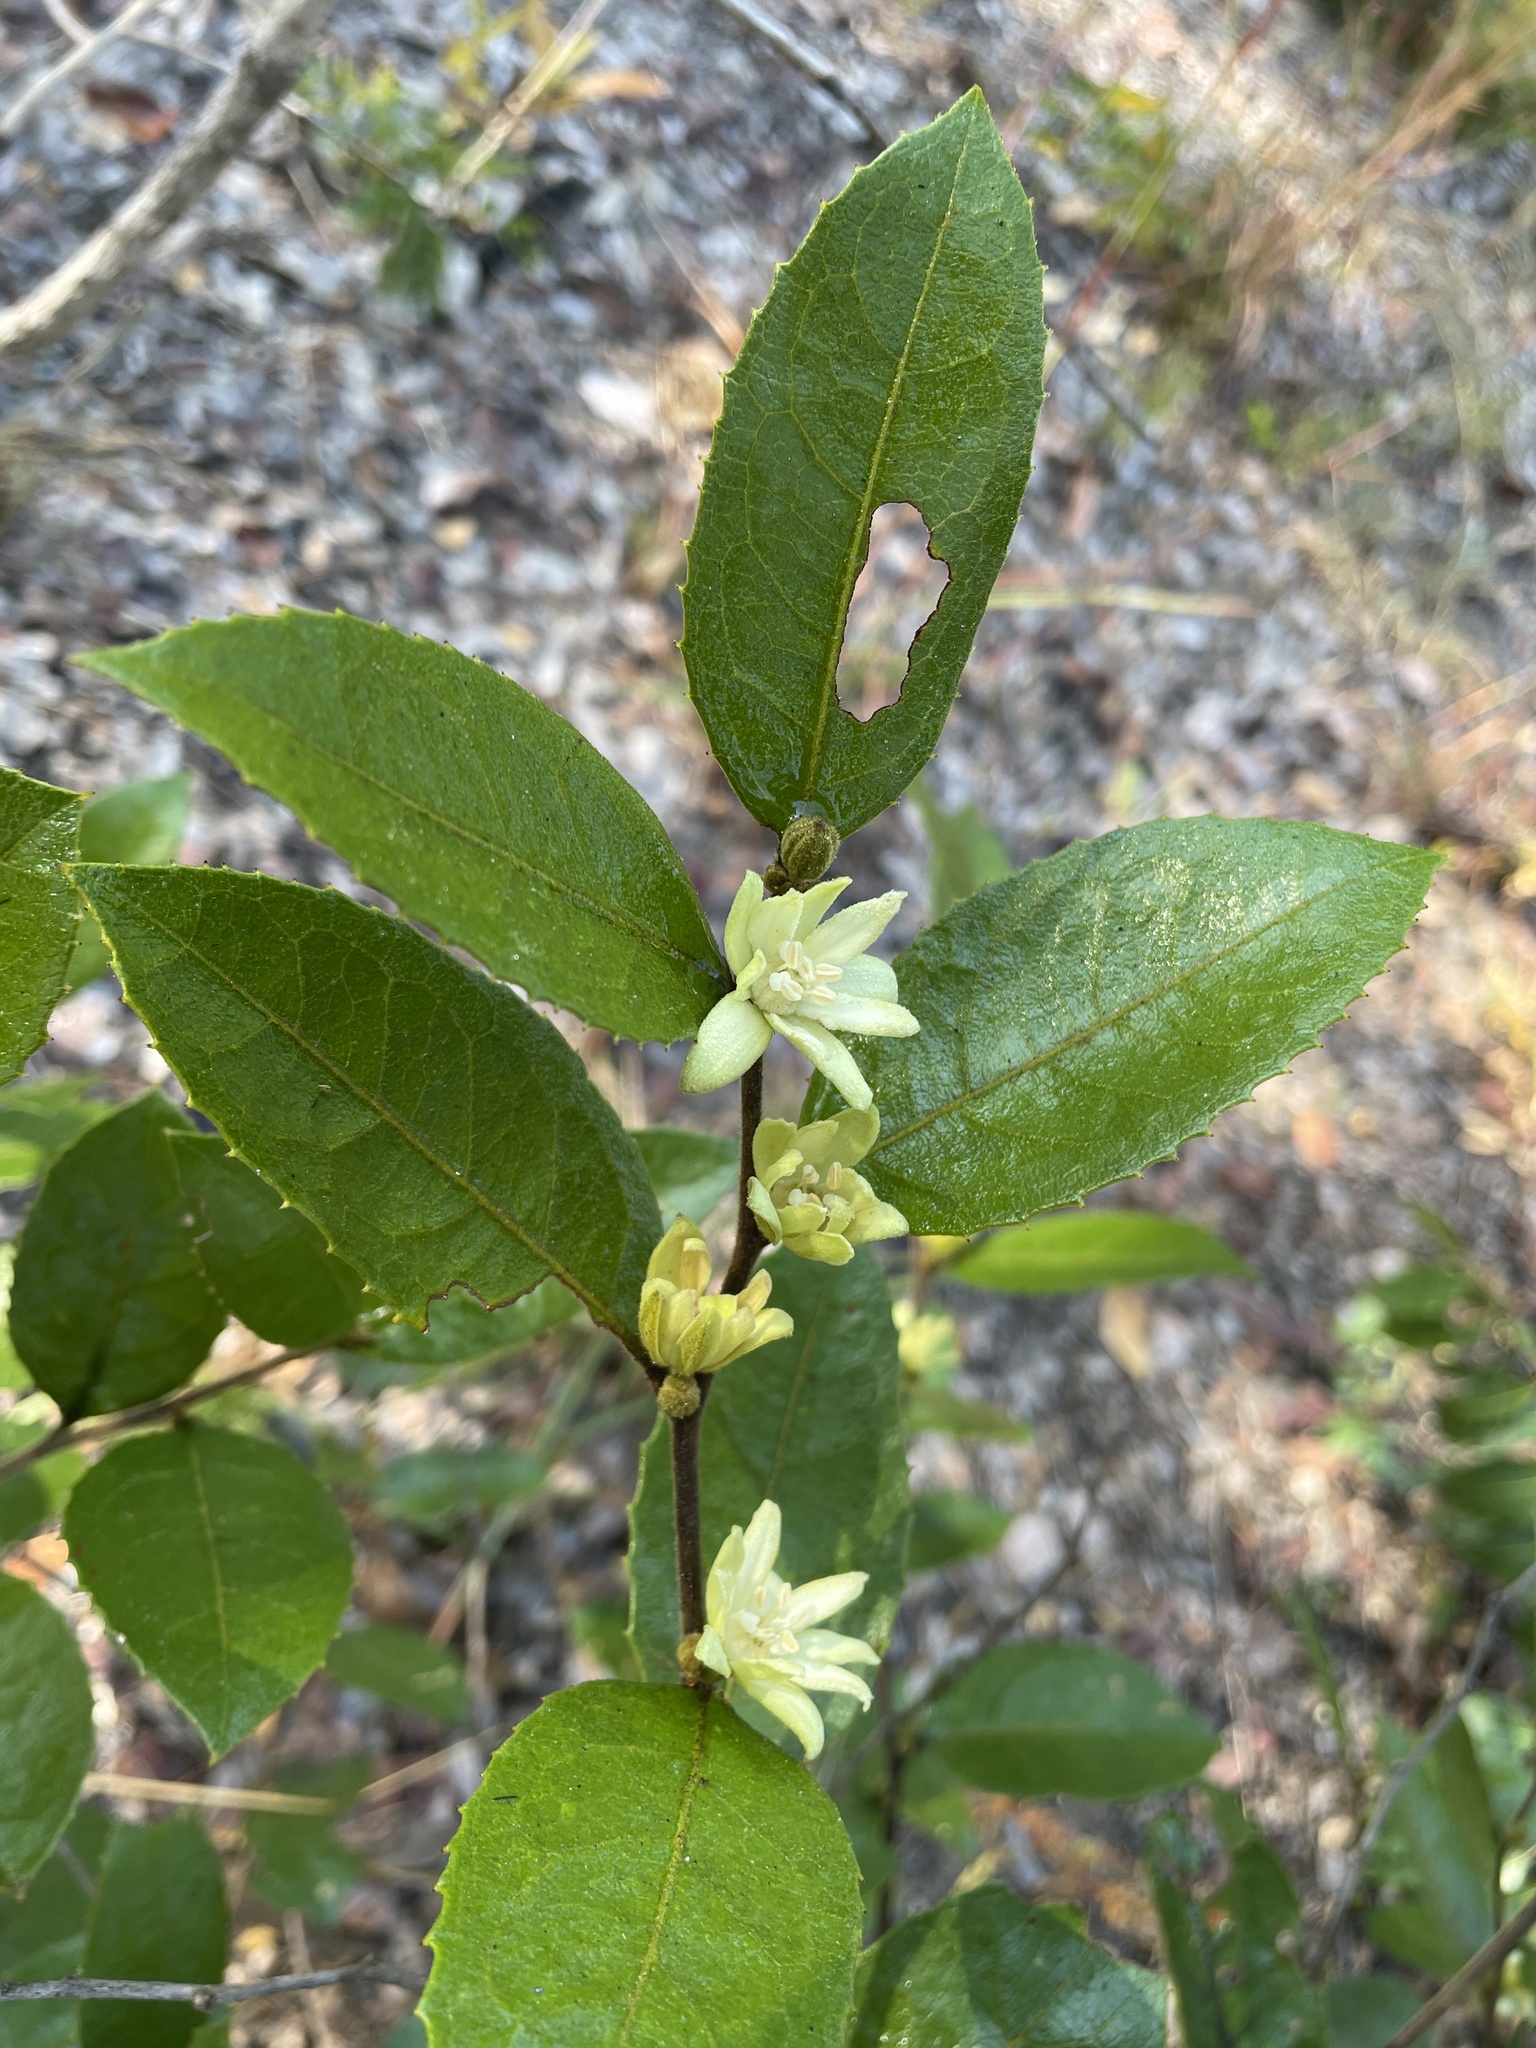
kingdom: Plantae
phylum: Tracheophyta
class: Magnoliopsida
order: Malpighiales
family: Passifloraceae
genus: Paropsia
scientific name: Paropsia brazzaeana
